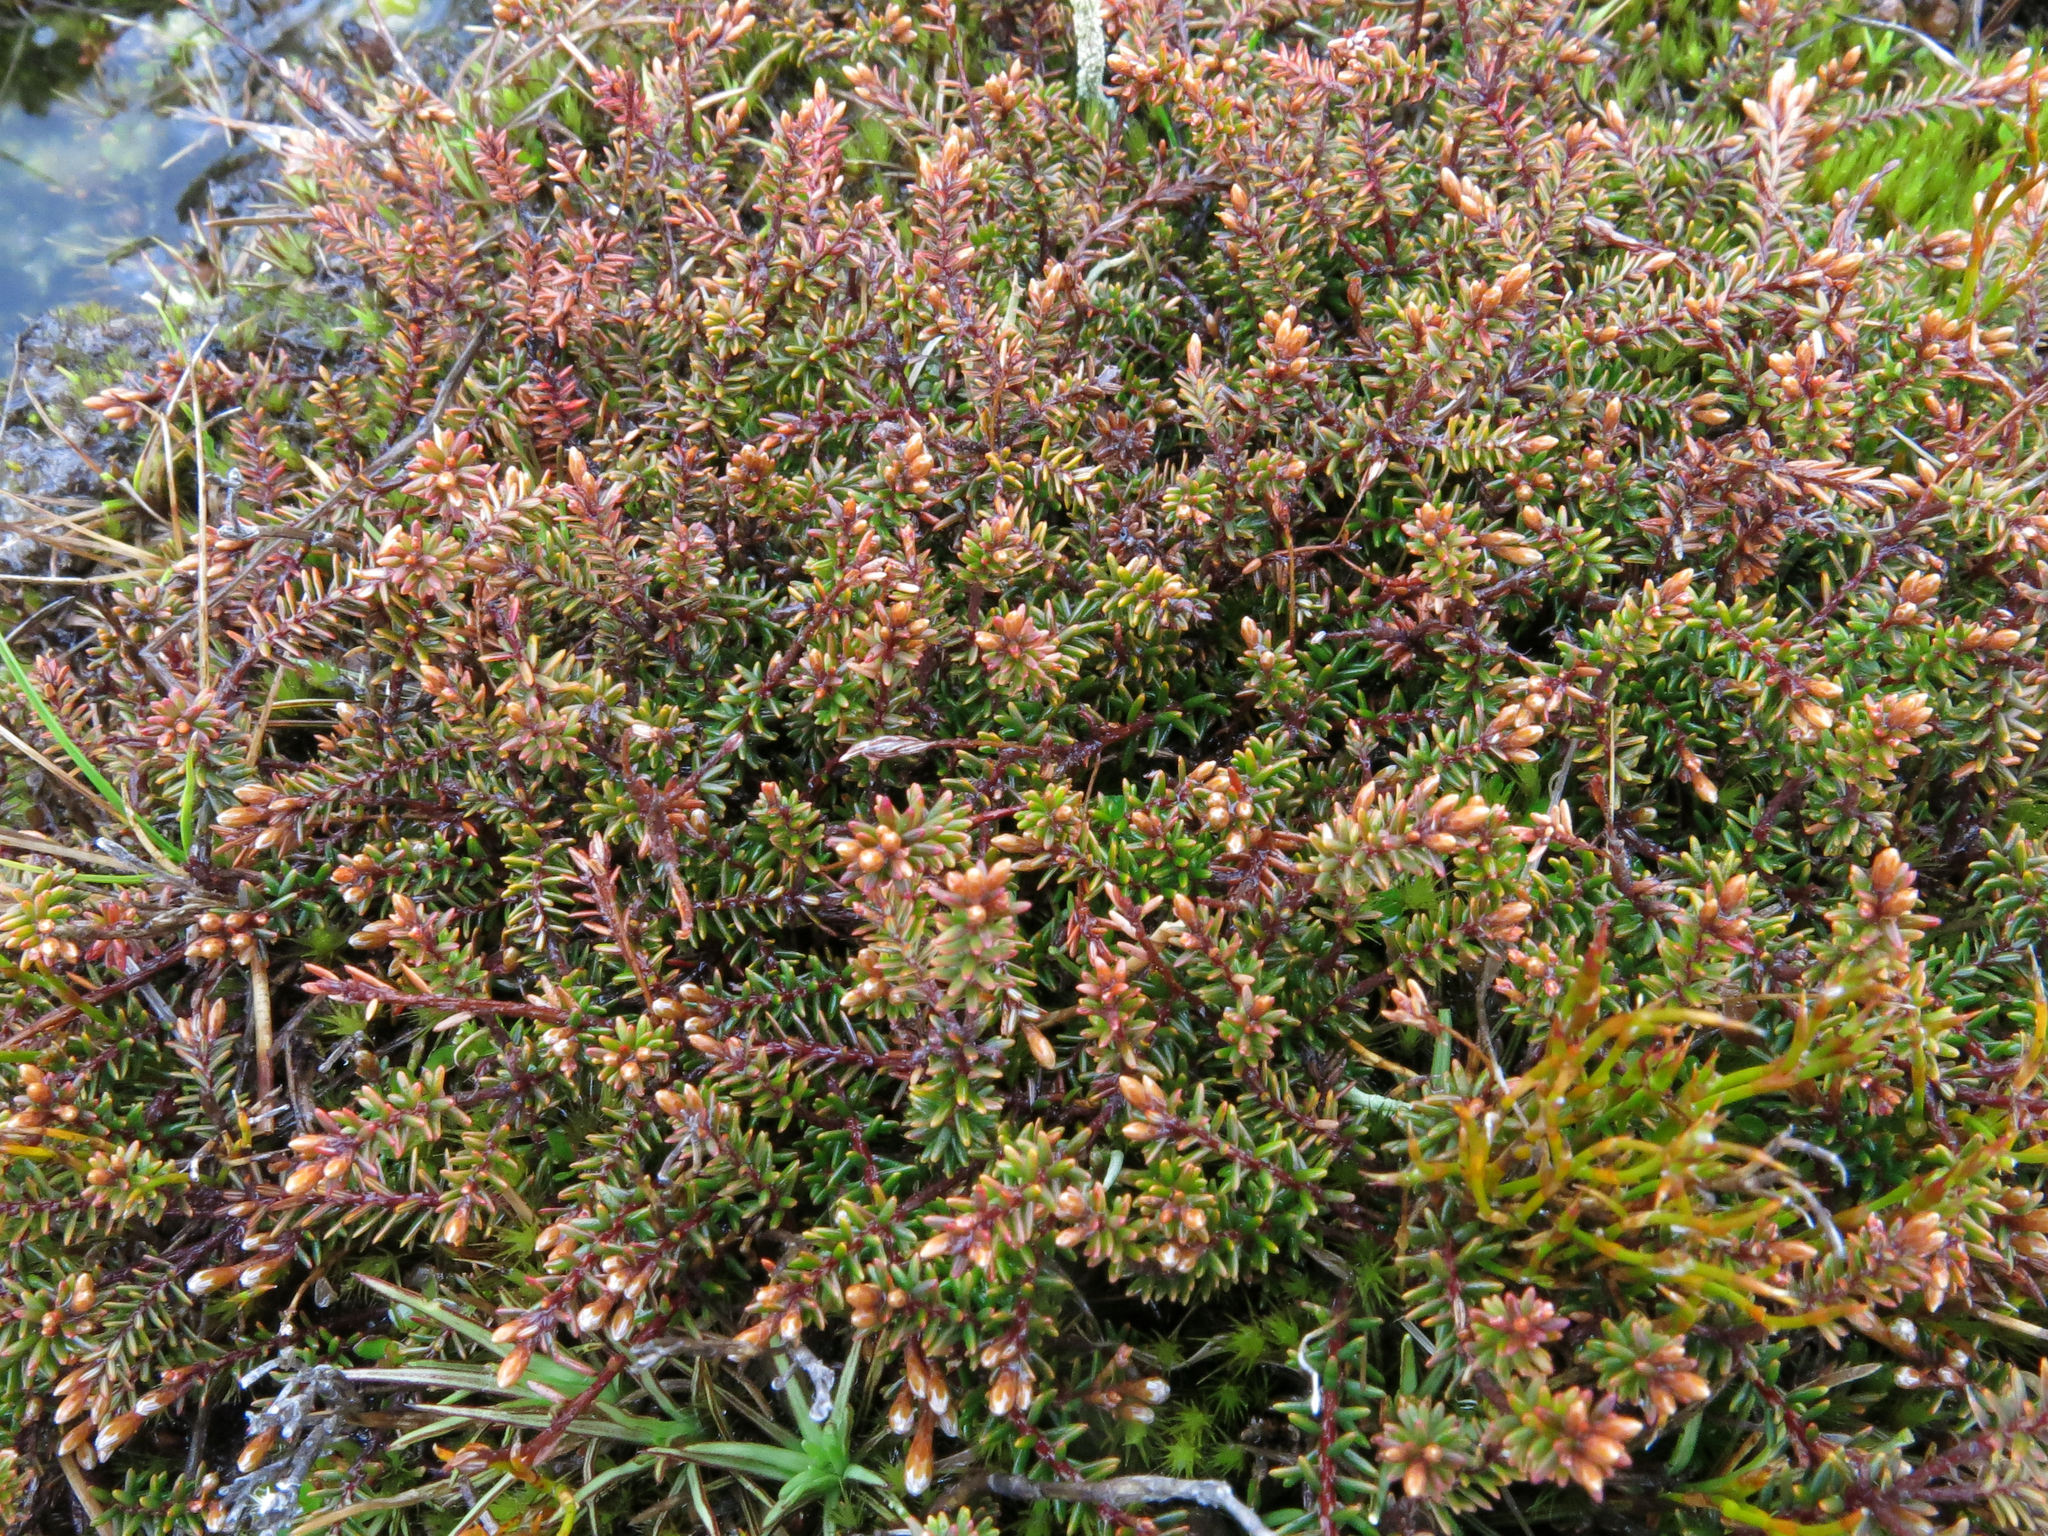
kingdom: Plantae
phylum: Tracheophyta
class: Magnoliopsida
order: Ericales
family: Ericaceae
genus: Androstoma
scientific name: Androstoma empetrifolia
